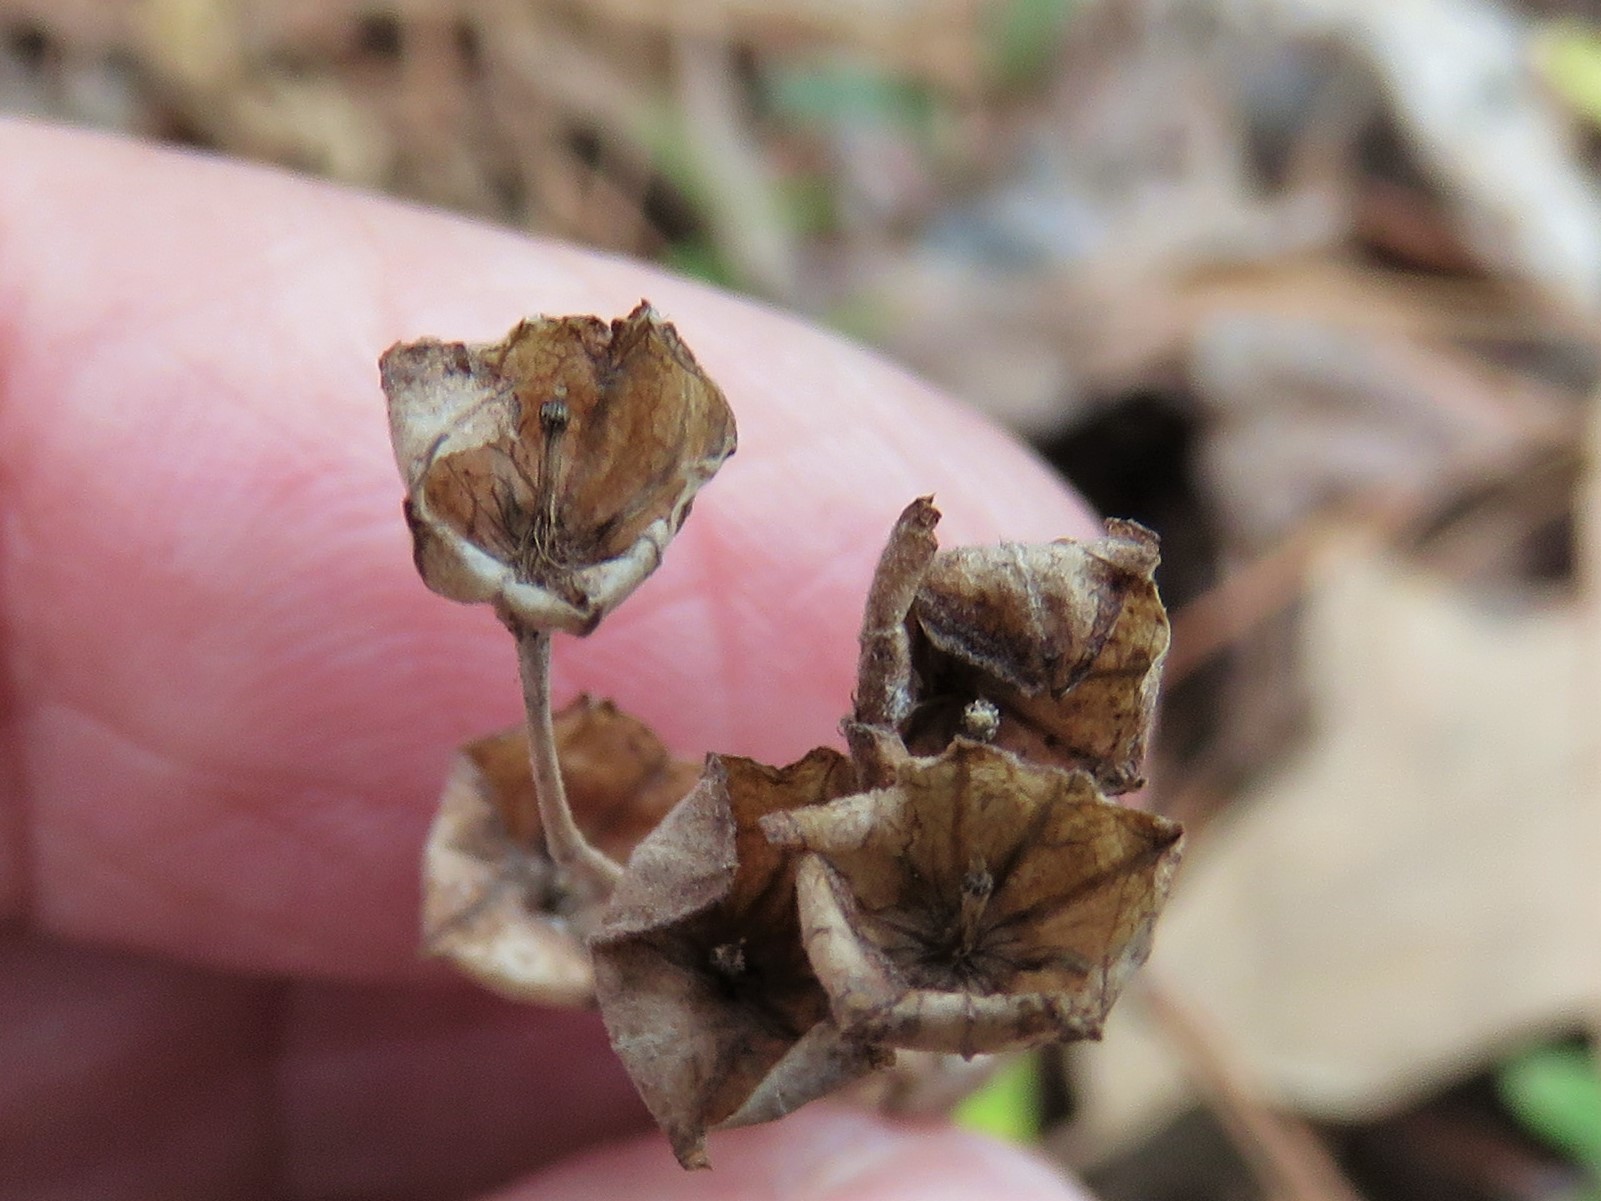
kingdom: Plantae
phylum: Tracheophyta
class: Magnoliopsida
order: Malvales
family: Malvaceae
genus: Sida
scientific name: Sida rhombifolia
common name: Queensland-hemp
